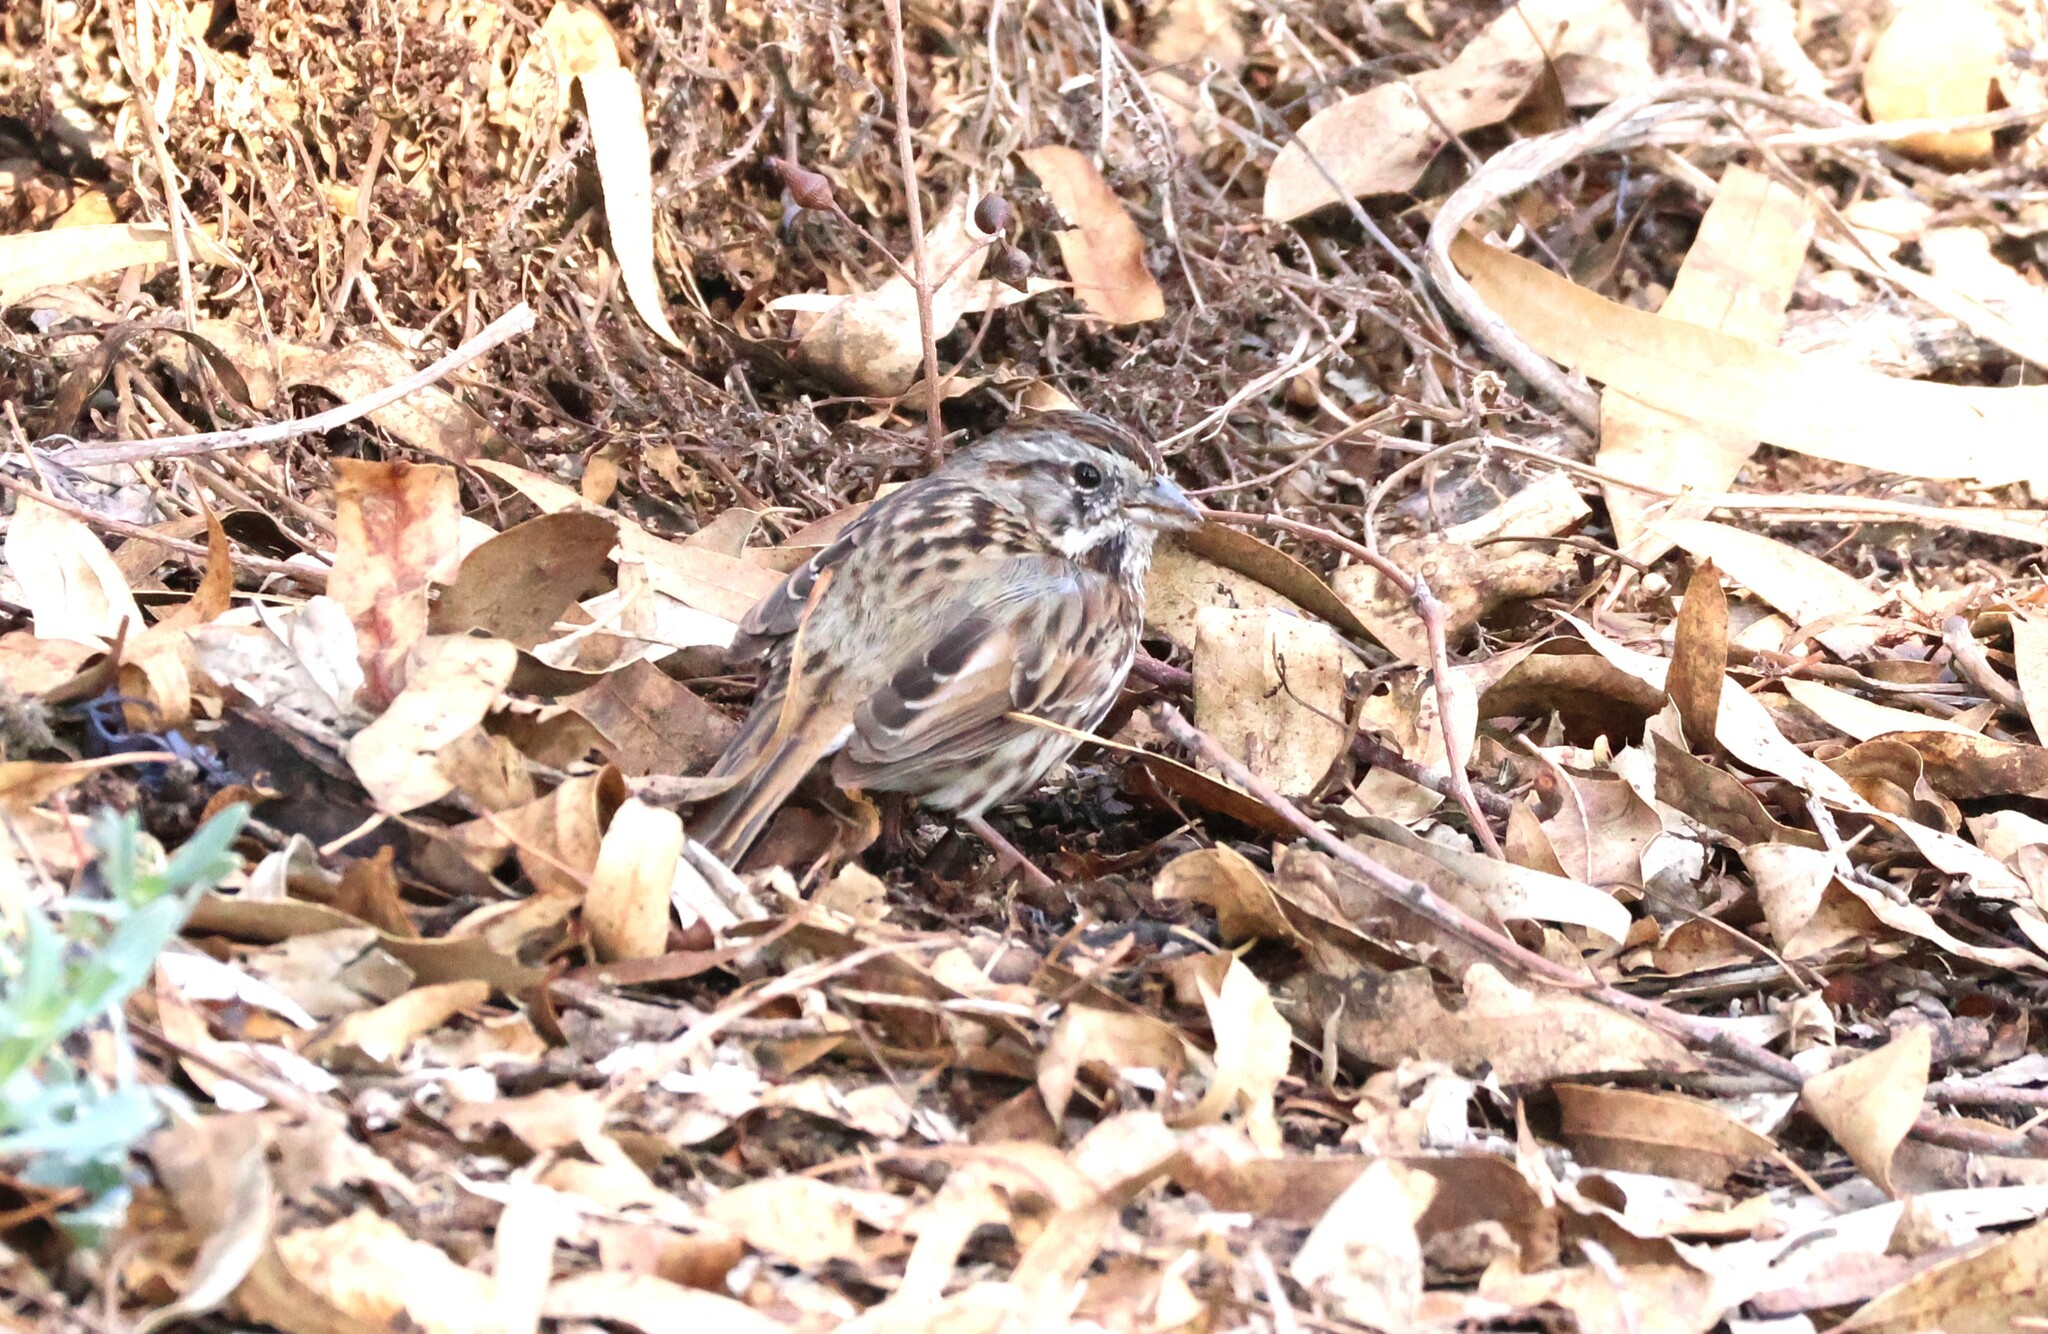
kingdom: Animalia
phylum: Chordata
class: Aves
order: Passeriformes
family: Passerellidae
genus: Melospiza
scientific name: Melospiza melodia
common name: Song sparrow
